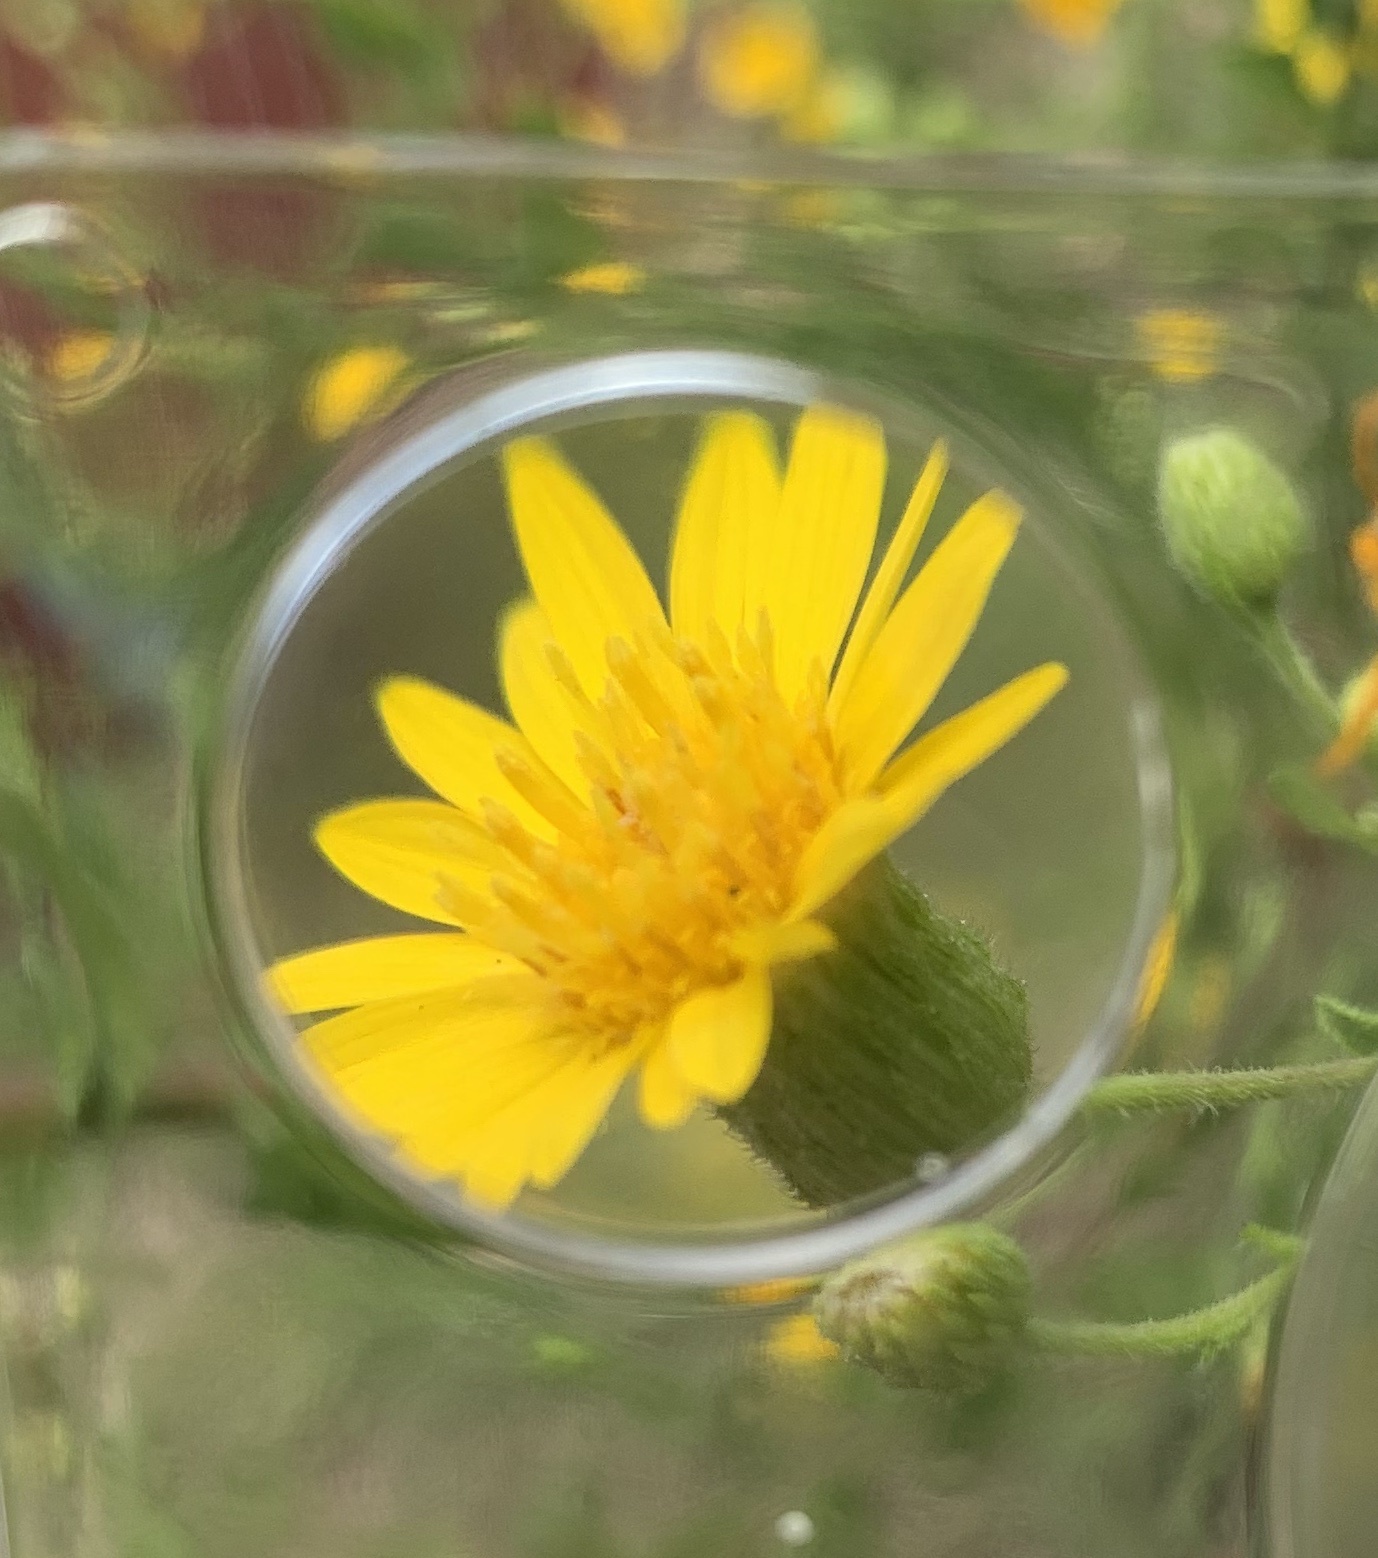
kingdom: Plantae
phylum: Tracheophyta
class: Magnoliopsida
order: Asterales
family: Asteraceae
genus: Heterotheca
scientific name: Heterotheca subaxillaris
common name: Camphorweed
